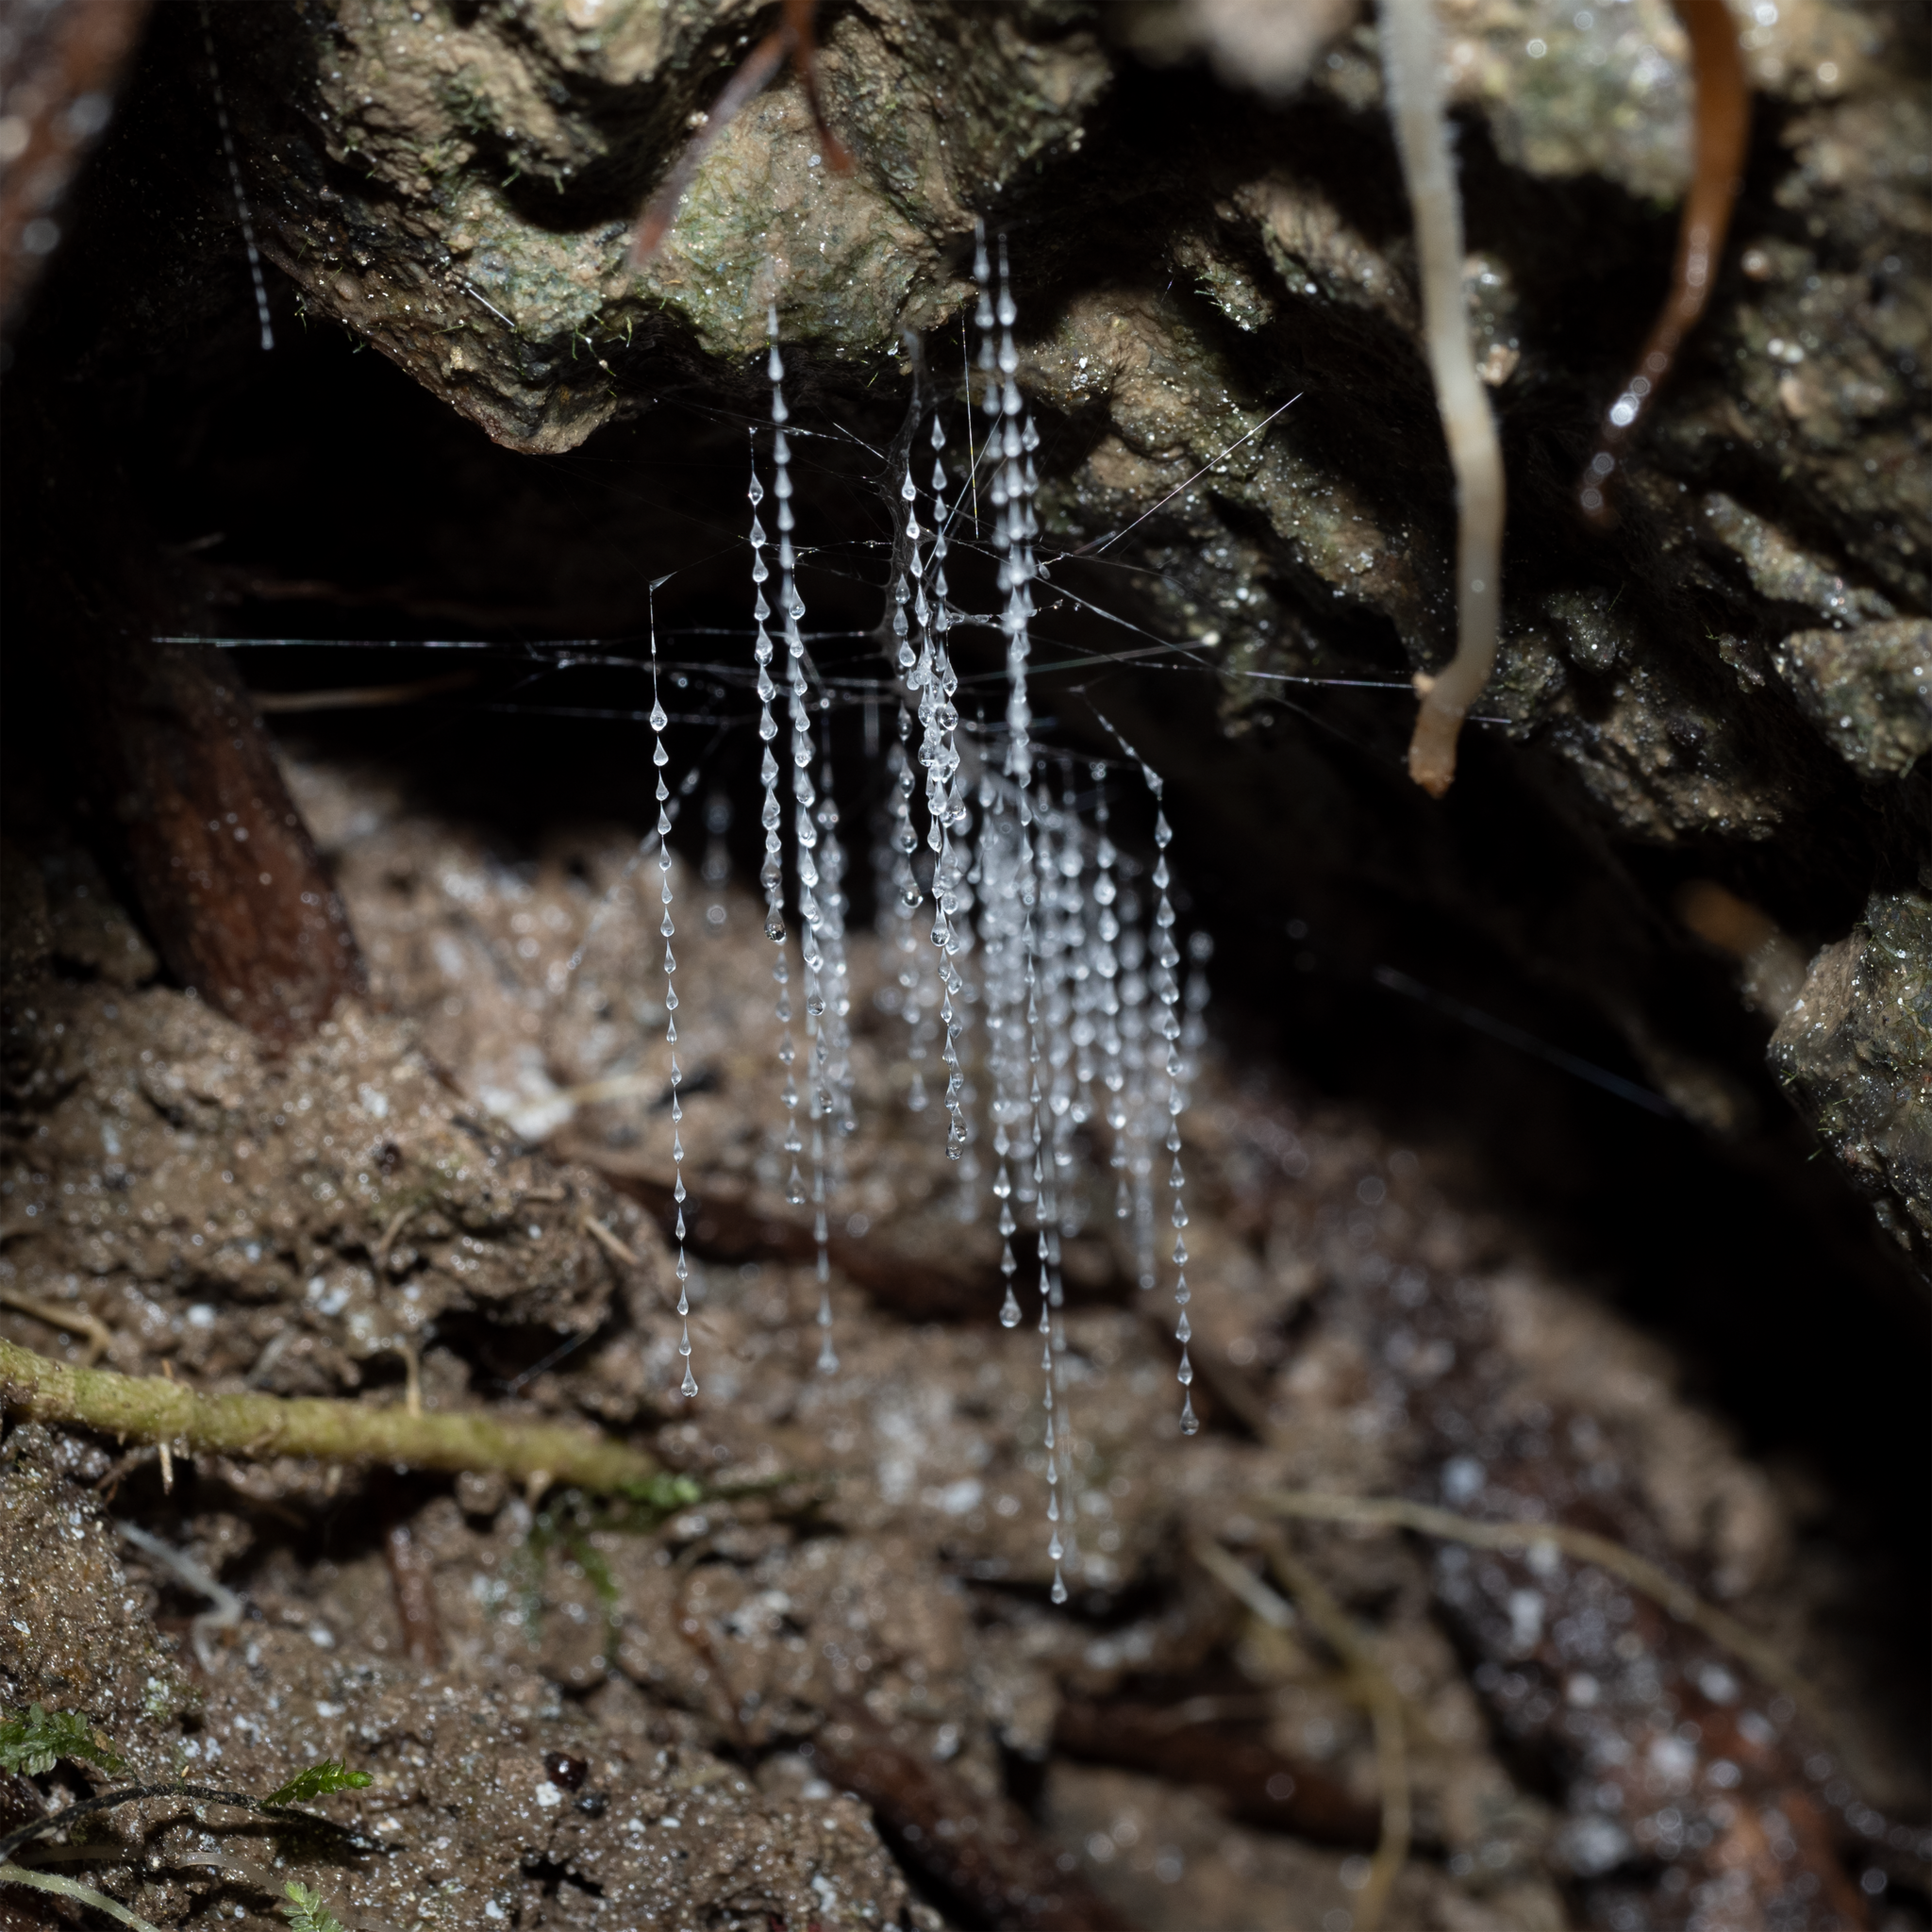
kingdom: Animalia
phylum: Arthropoda
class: Insecta
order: Diptera
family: Keroplatidae
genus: Arachnocampa
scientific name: Arachnocampa luminosa
